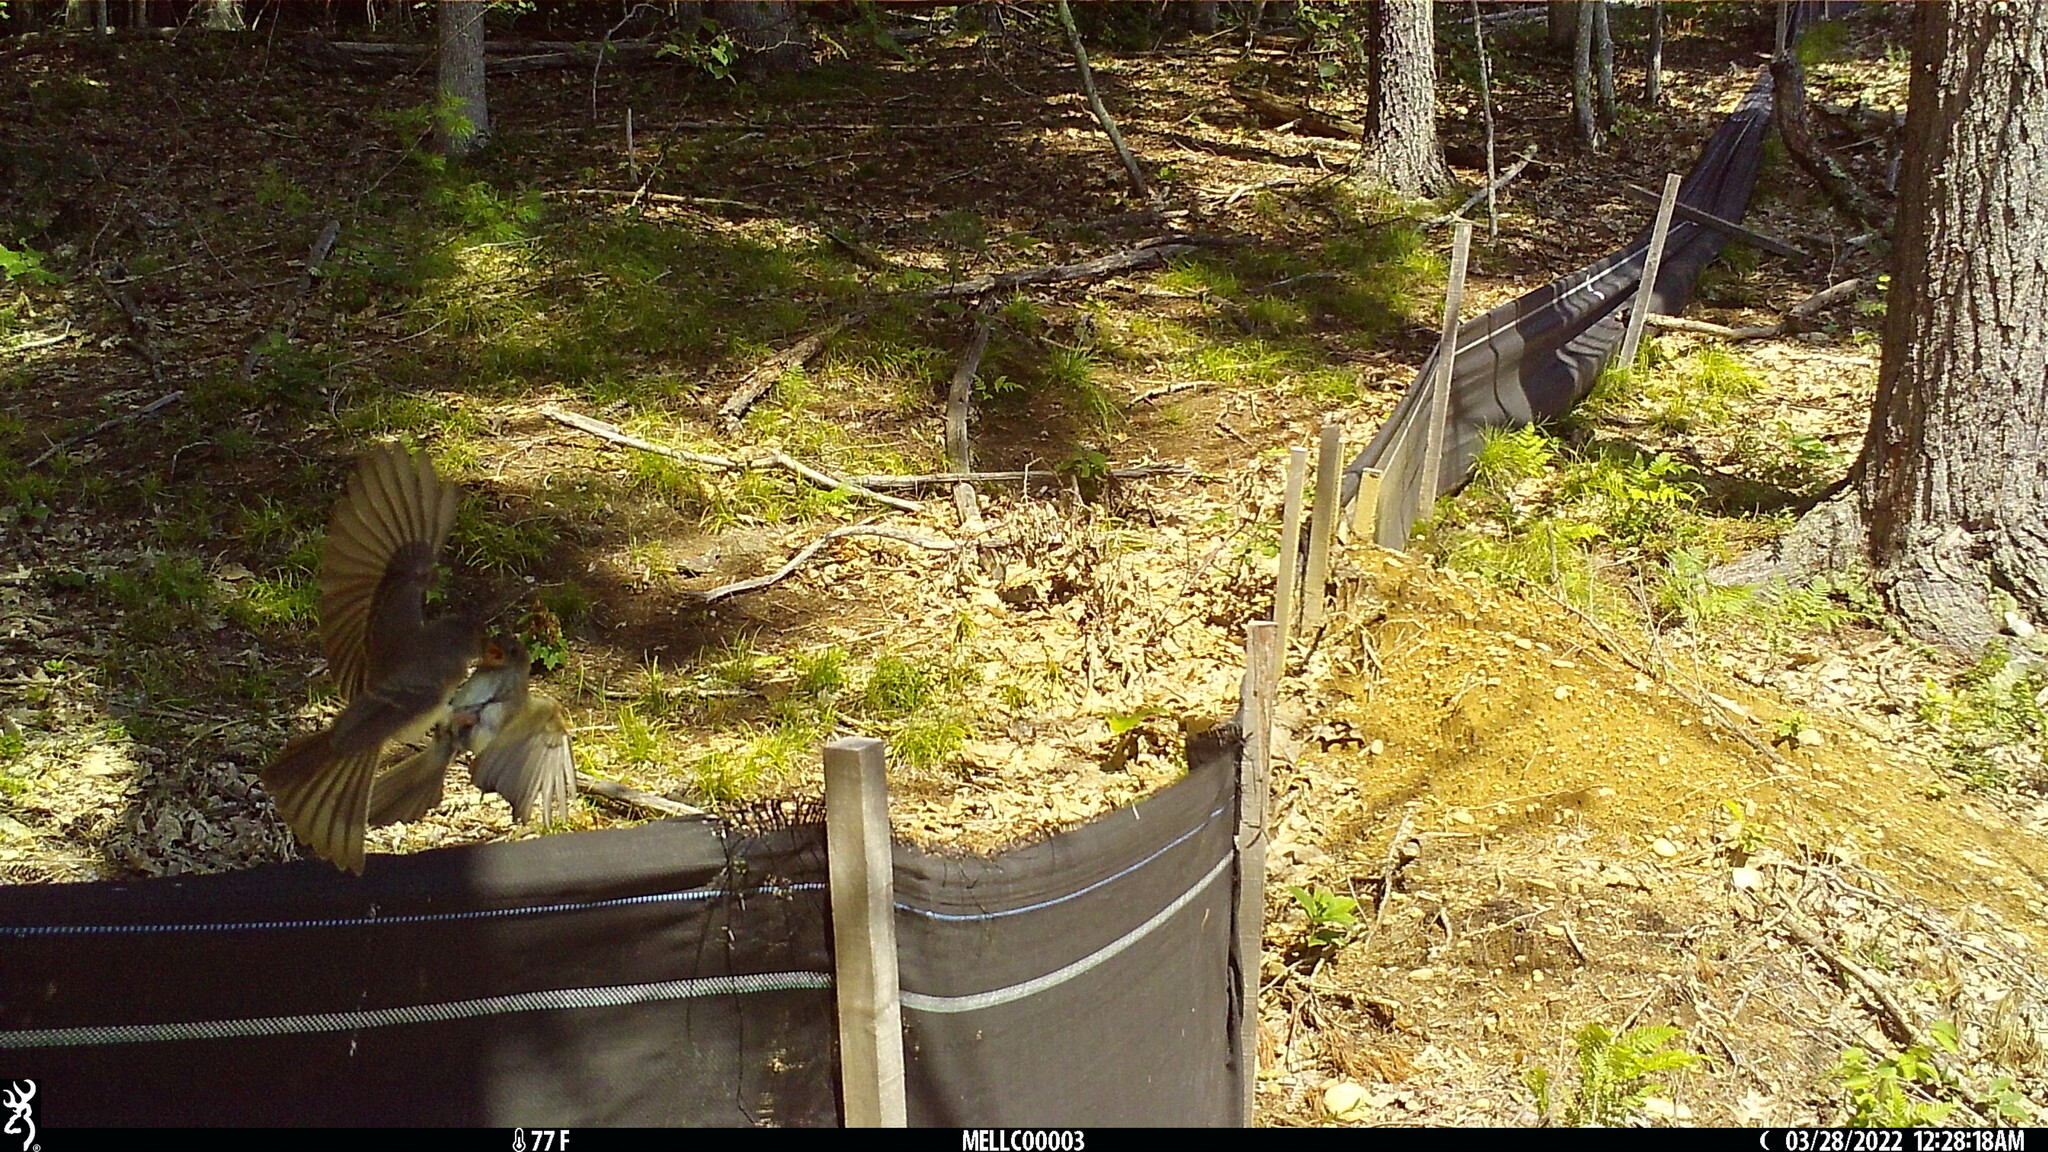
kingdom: Animalia
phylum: Chordata
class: Aves
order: Passeriformes
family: Tyrannidae
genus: Sayornis
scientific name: Sayornis phoebe
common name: Eastern phoebe
